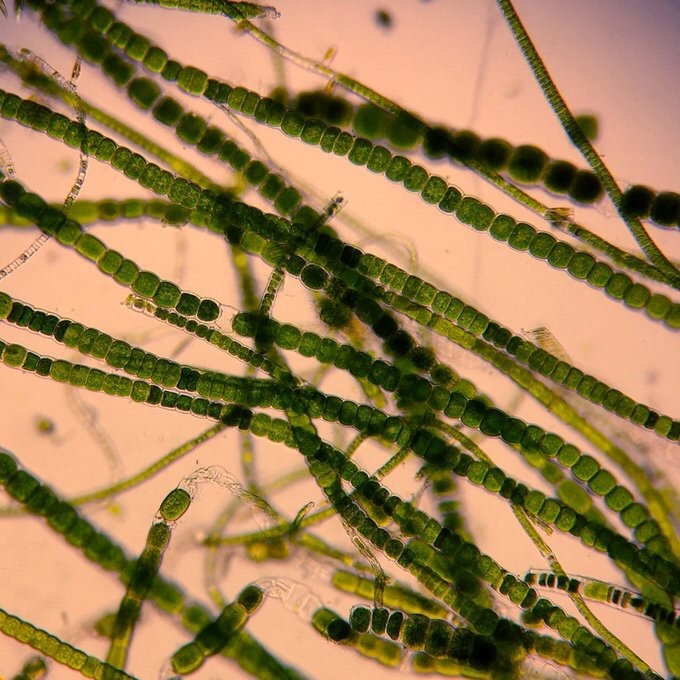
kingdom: Plantae
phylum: Chlorophyta
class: Ulvophyceae
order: Ulotrichales
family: Ulotrichaceae
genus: Urospora
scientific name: Urospora penicilliformis
